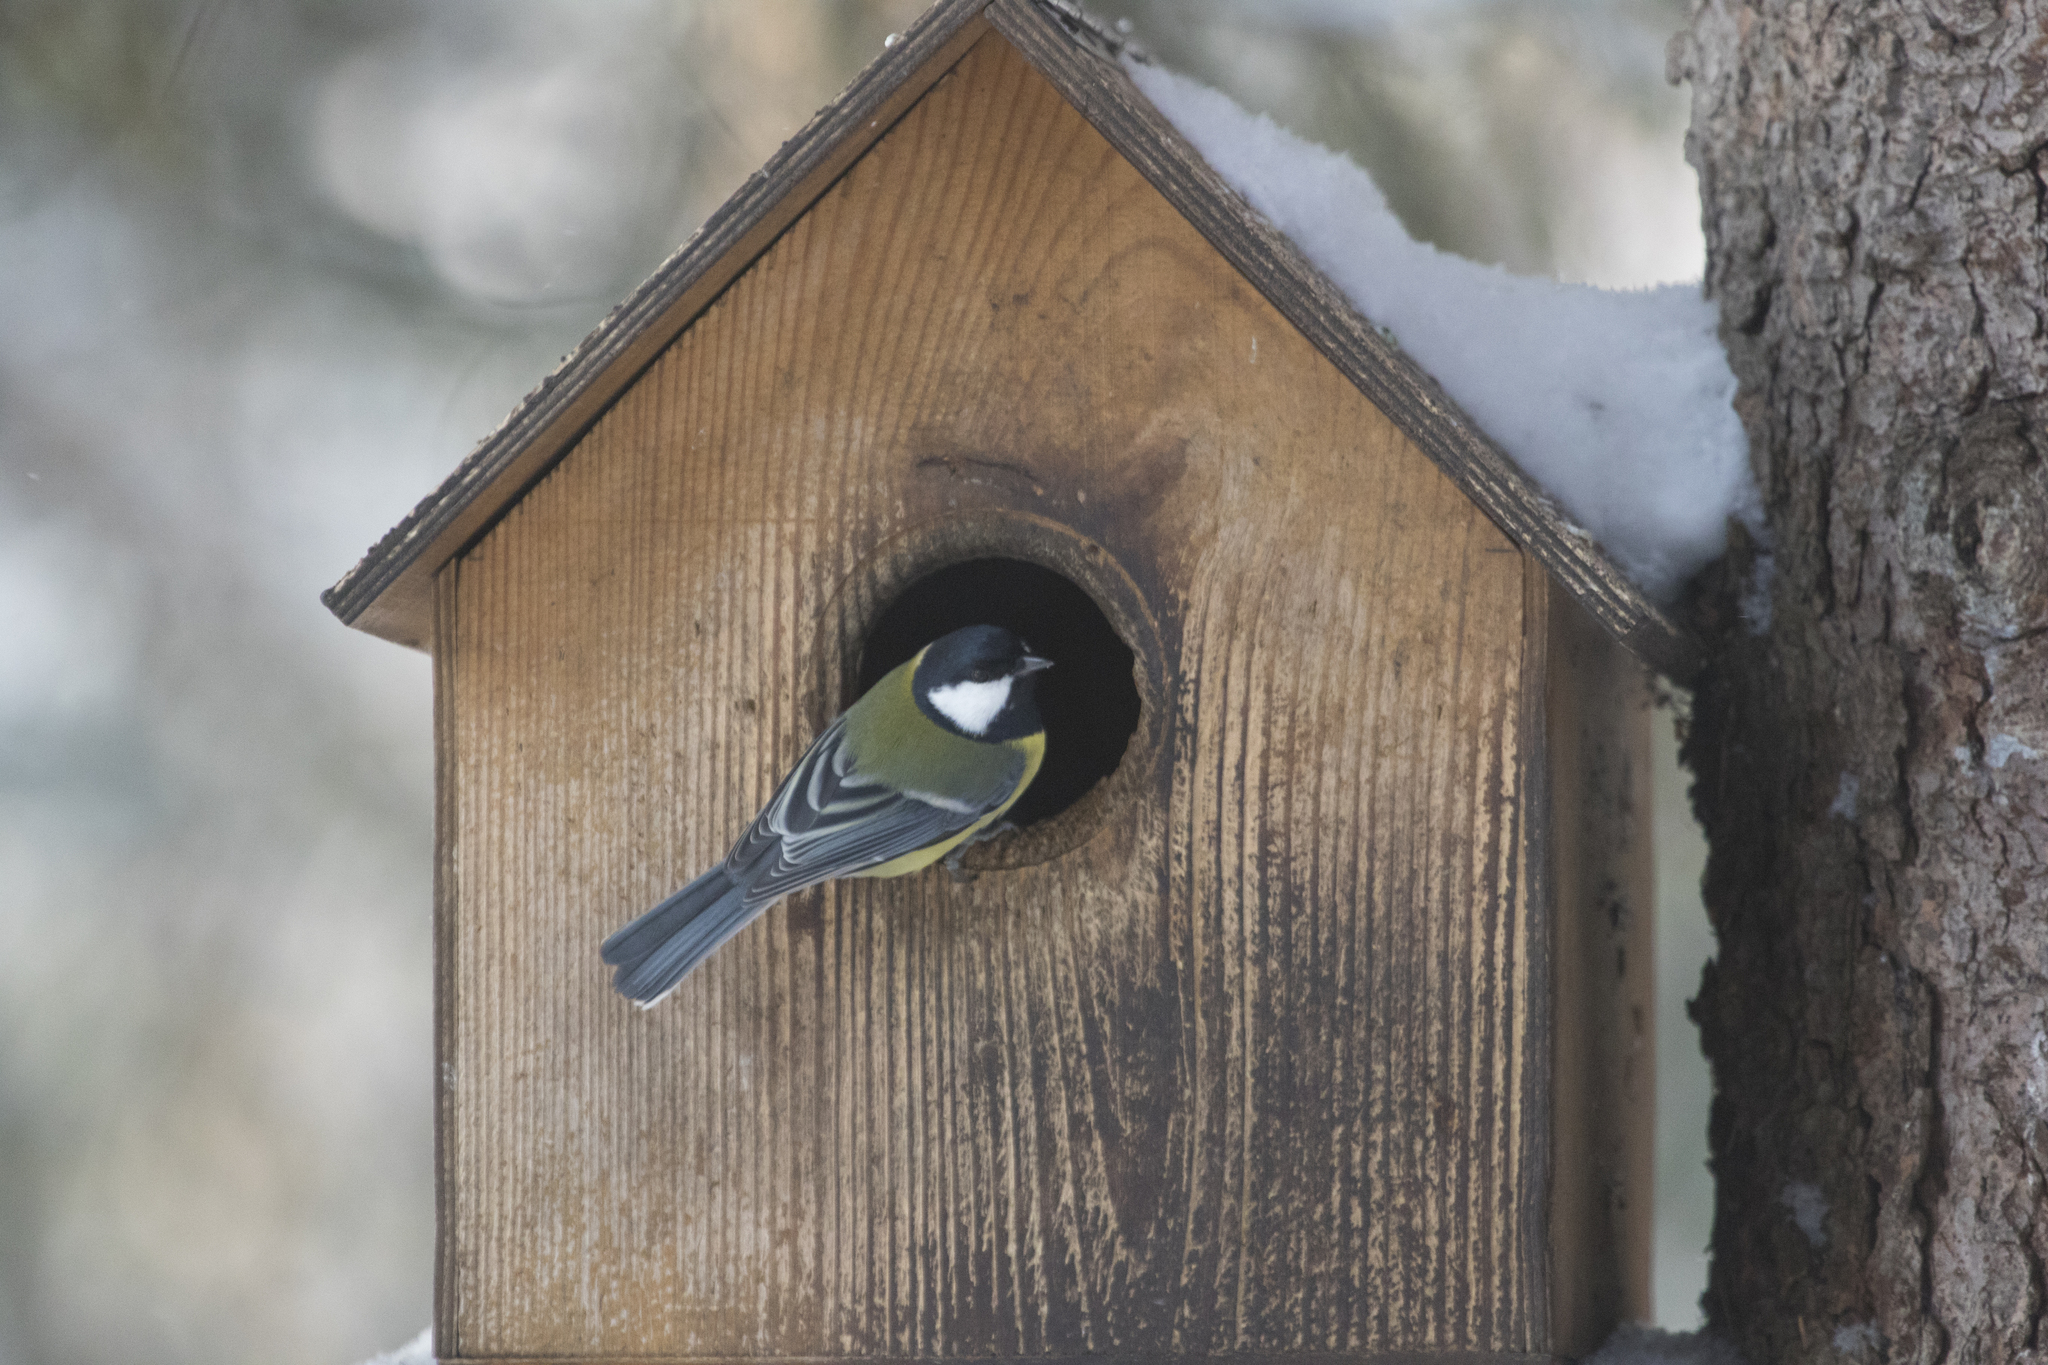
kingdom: Animalia
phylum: Chordata
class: Aves
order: Passeriformes
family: Paridae
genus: Parus
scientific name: Parus major
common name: Great tit
